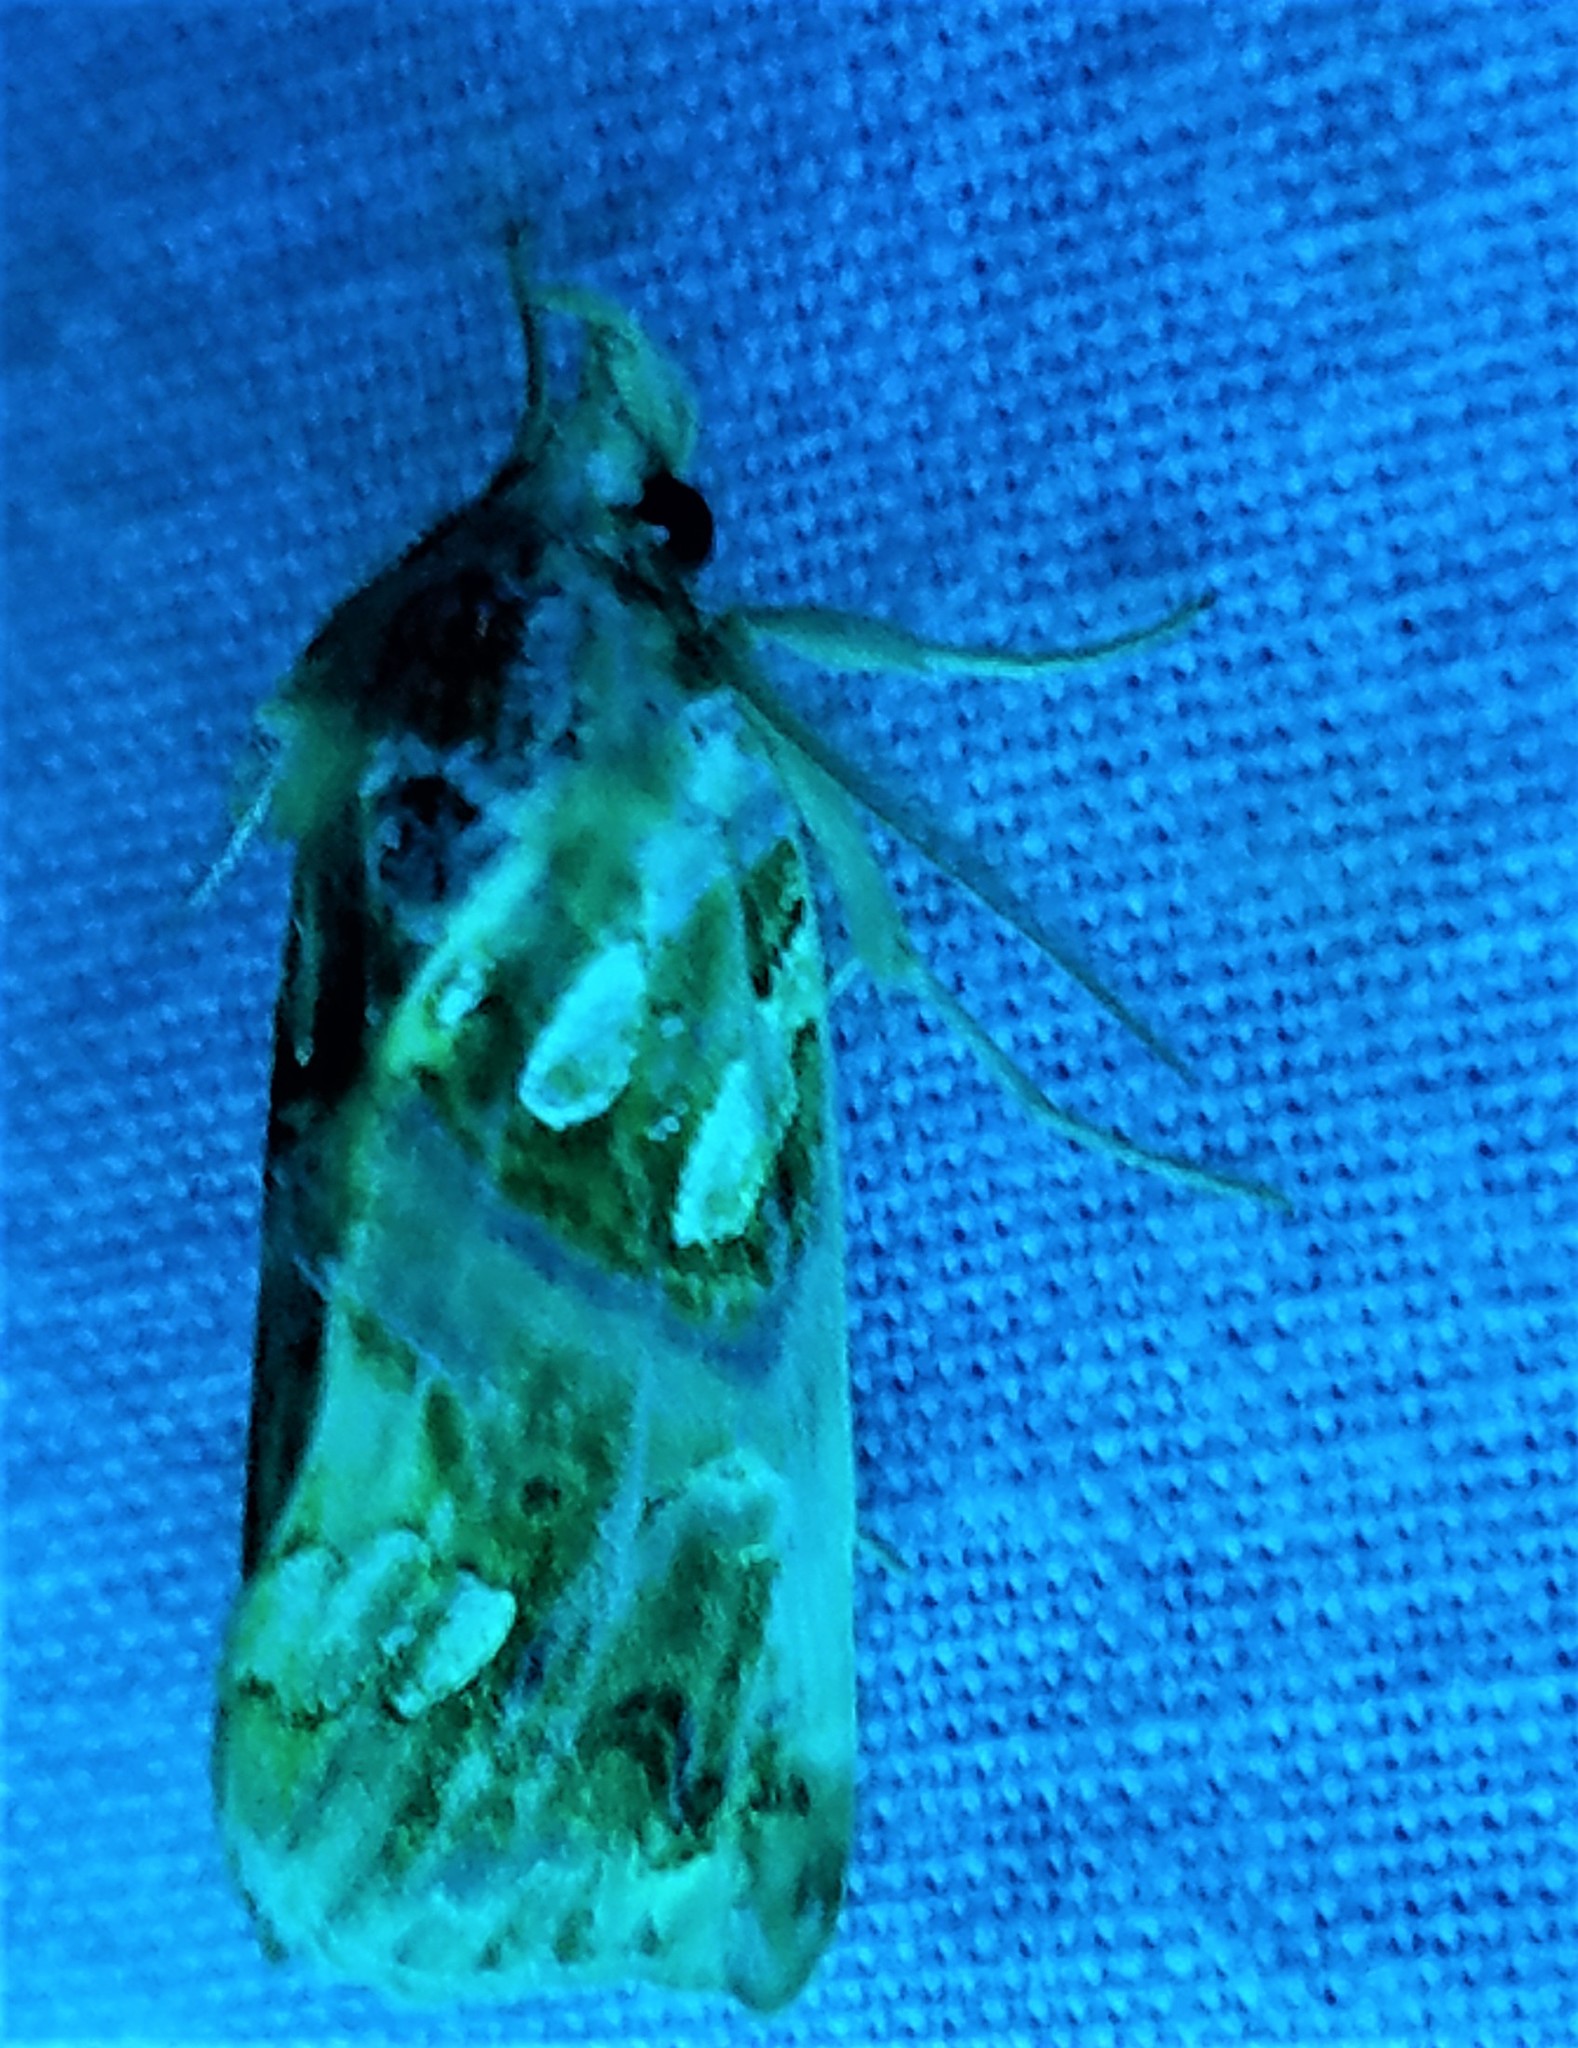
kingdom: Animalia
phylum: Arthropoda
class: Insecta
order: Lepidoptera
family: Erebidae
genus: Plusiodonta
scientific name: Plusiodonta compressipalpis
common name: Moonseed moth
